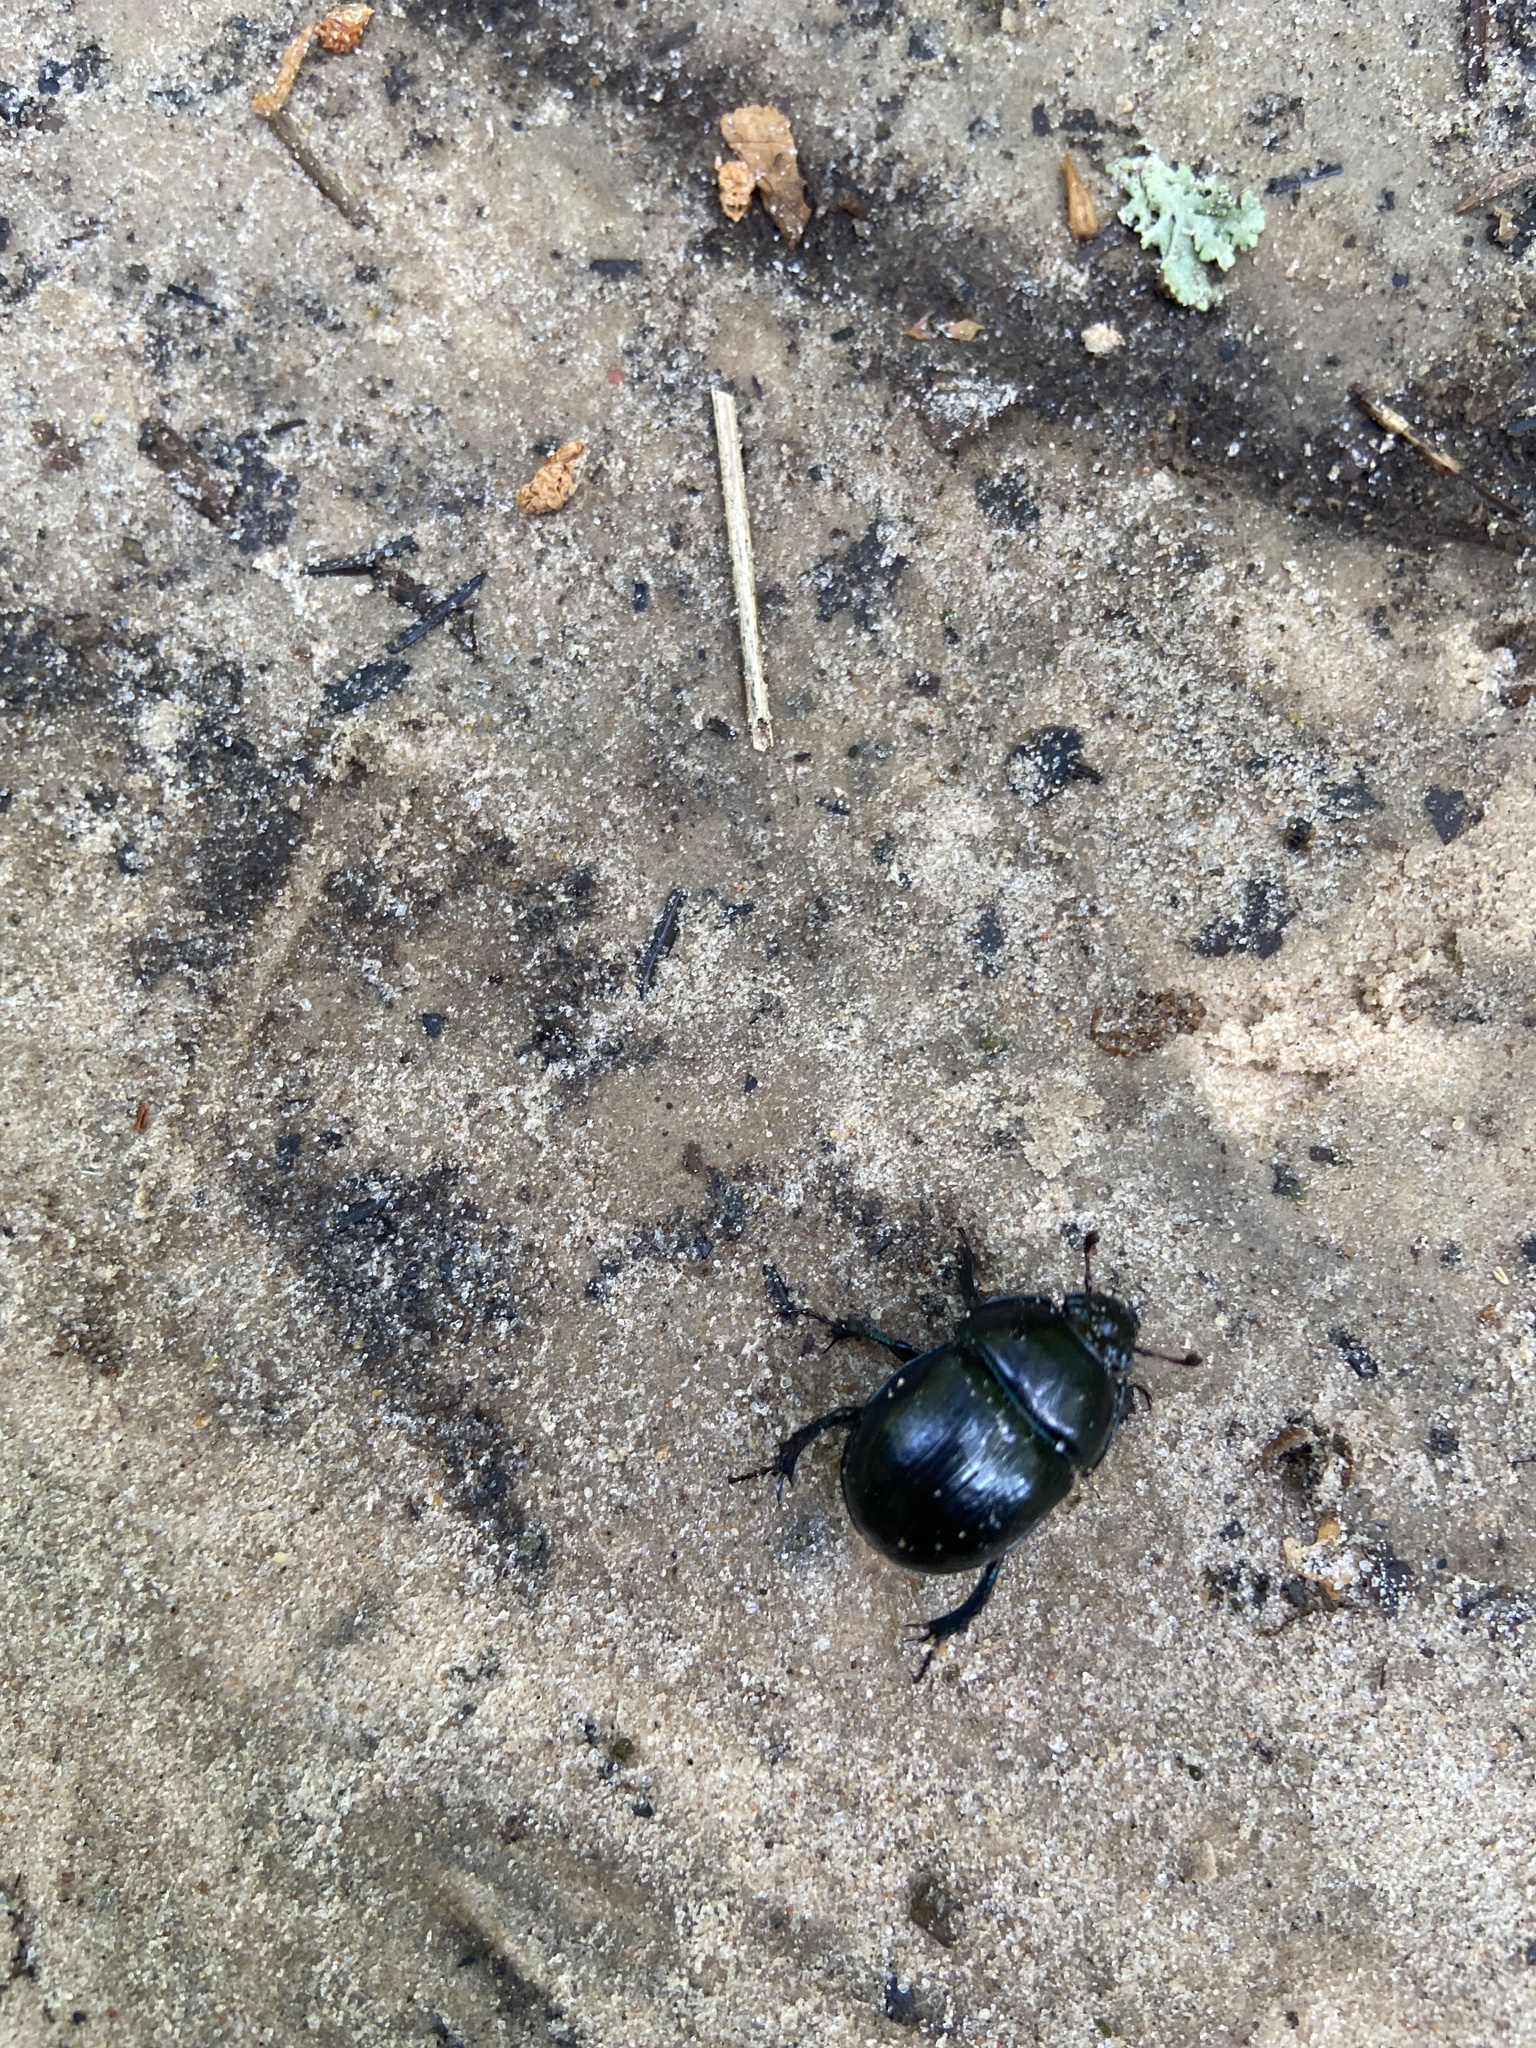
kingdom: Animalia
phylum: Arthropoda
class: Insecta
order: Coleoptera
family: Geotrupidae
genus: Anoplotrupes
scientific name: Anoplotrupes stercorosus
